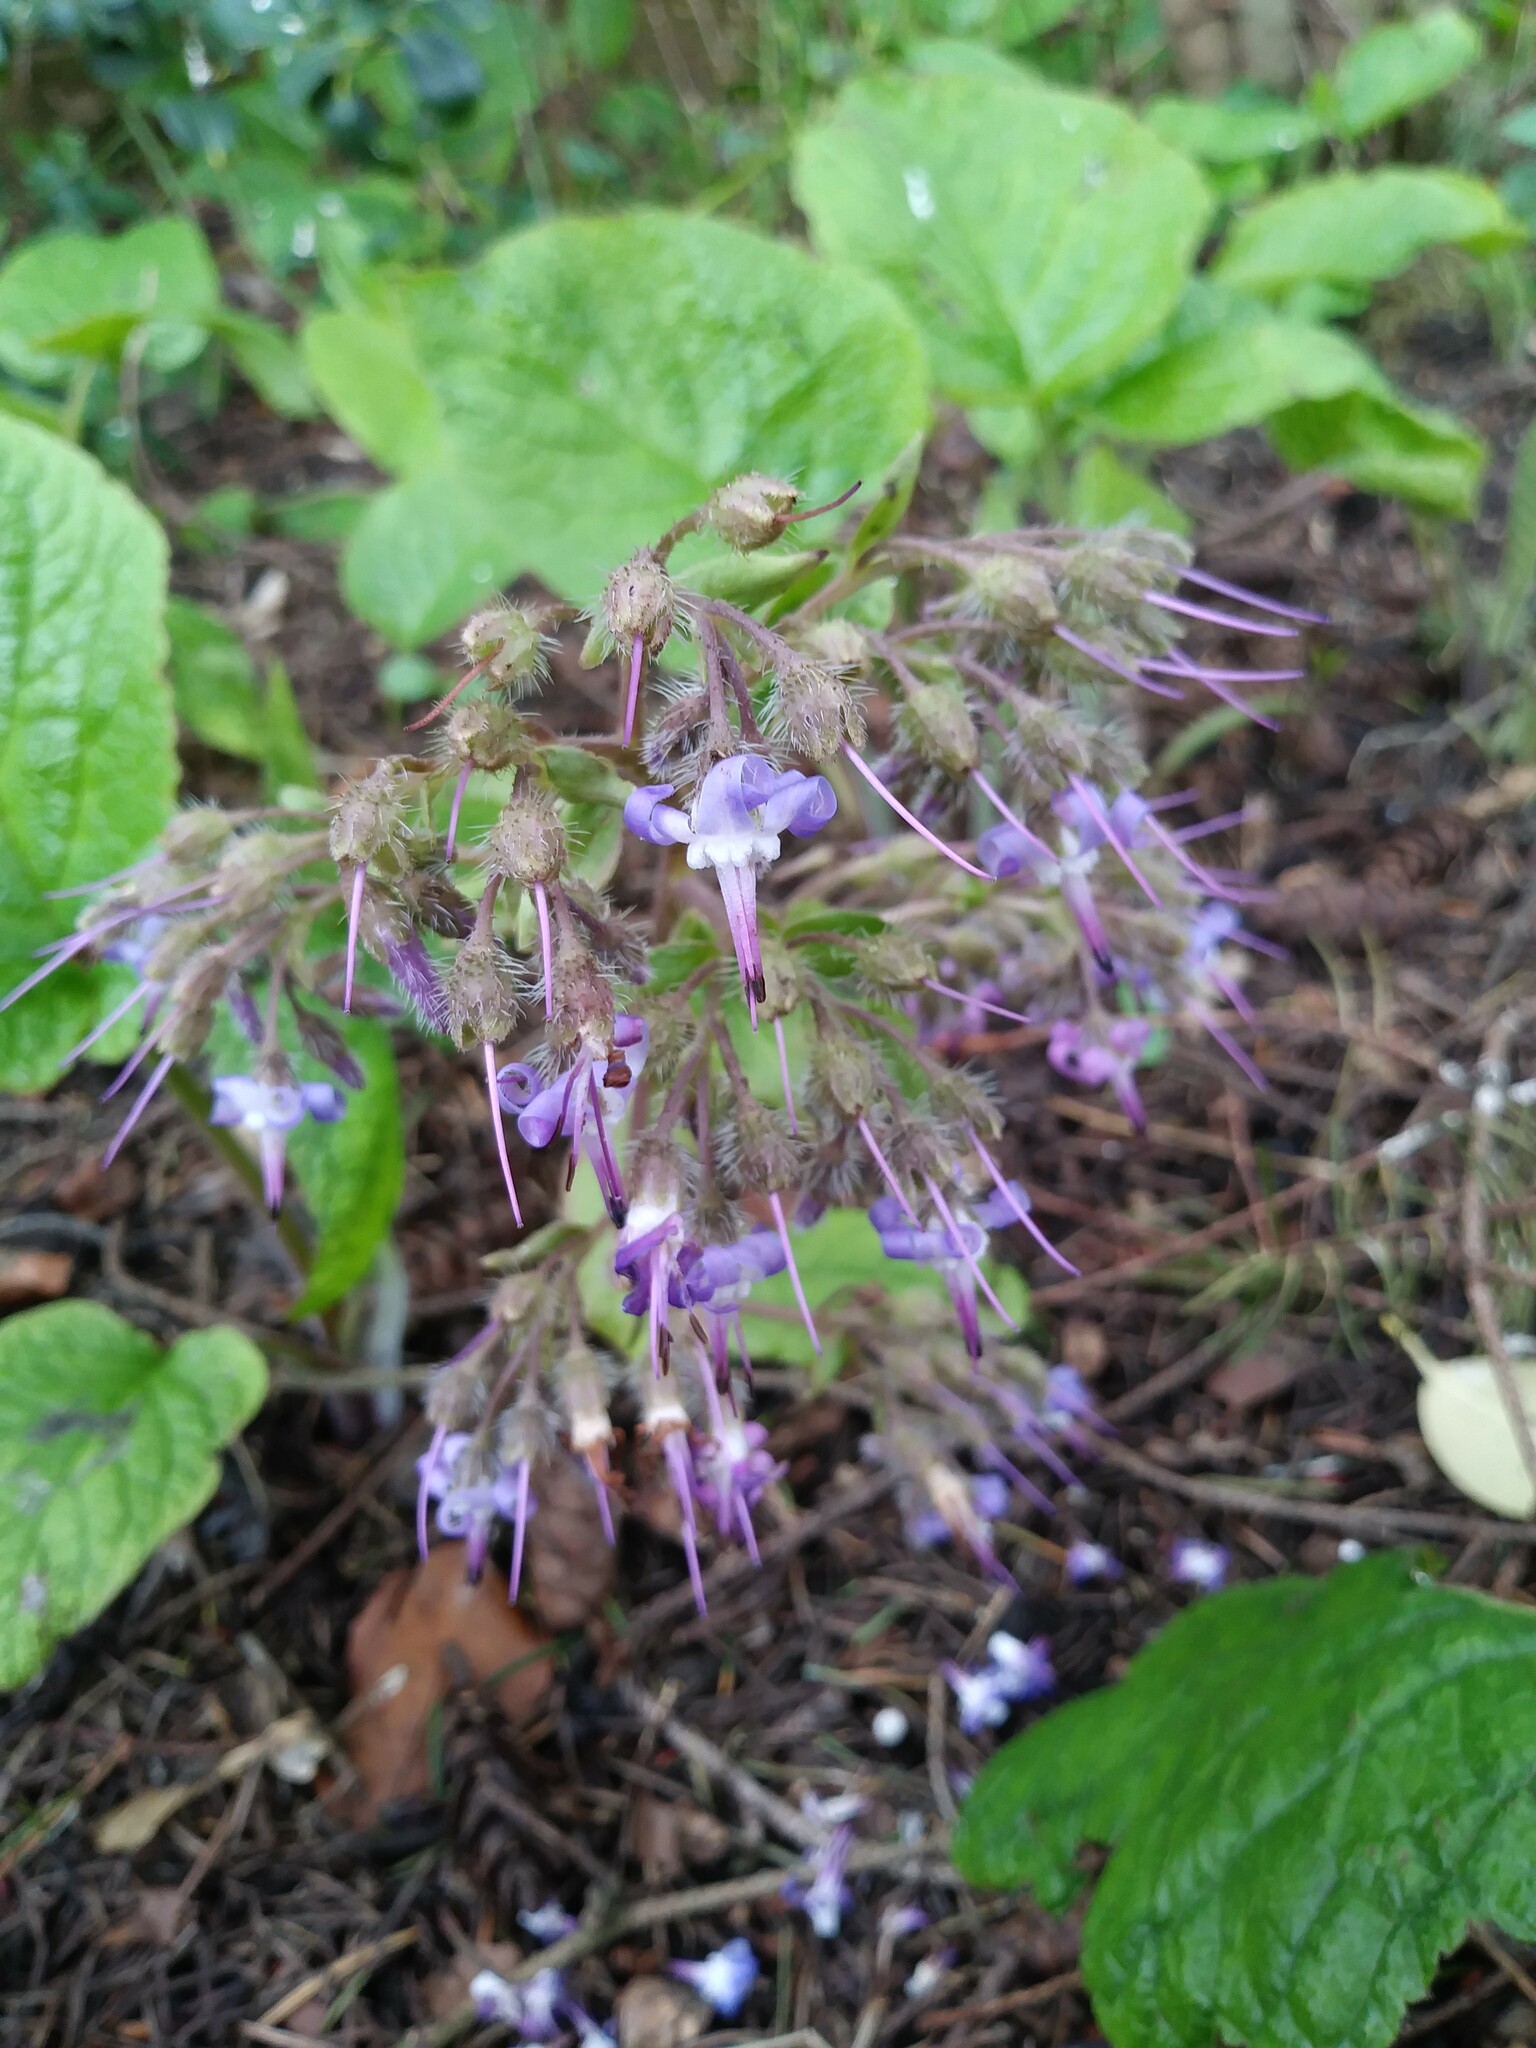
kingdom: Plantae
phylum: Tracheophyta
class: Magnoliopsida
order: Boraginales
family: Boraginaceae
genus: Trachystemon
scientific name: Trachystemon orientale
